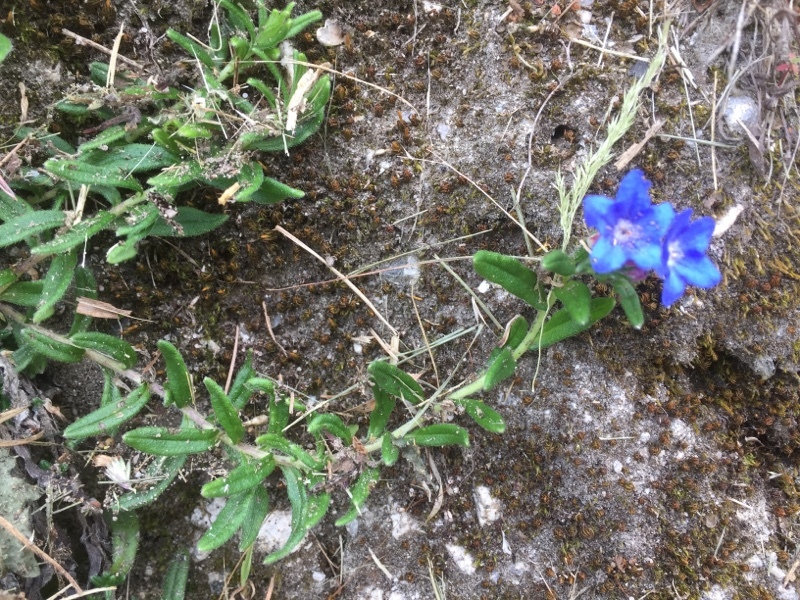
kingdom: Plantae
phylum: Tracheophyta
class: Magnoliopsida
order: Boraginales
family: Boraginaceae
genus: Glandora
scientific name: Glandora prostrata
